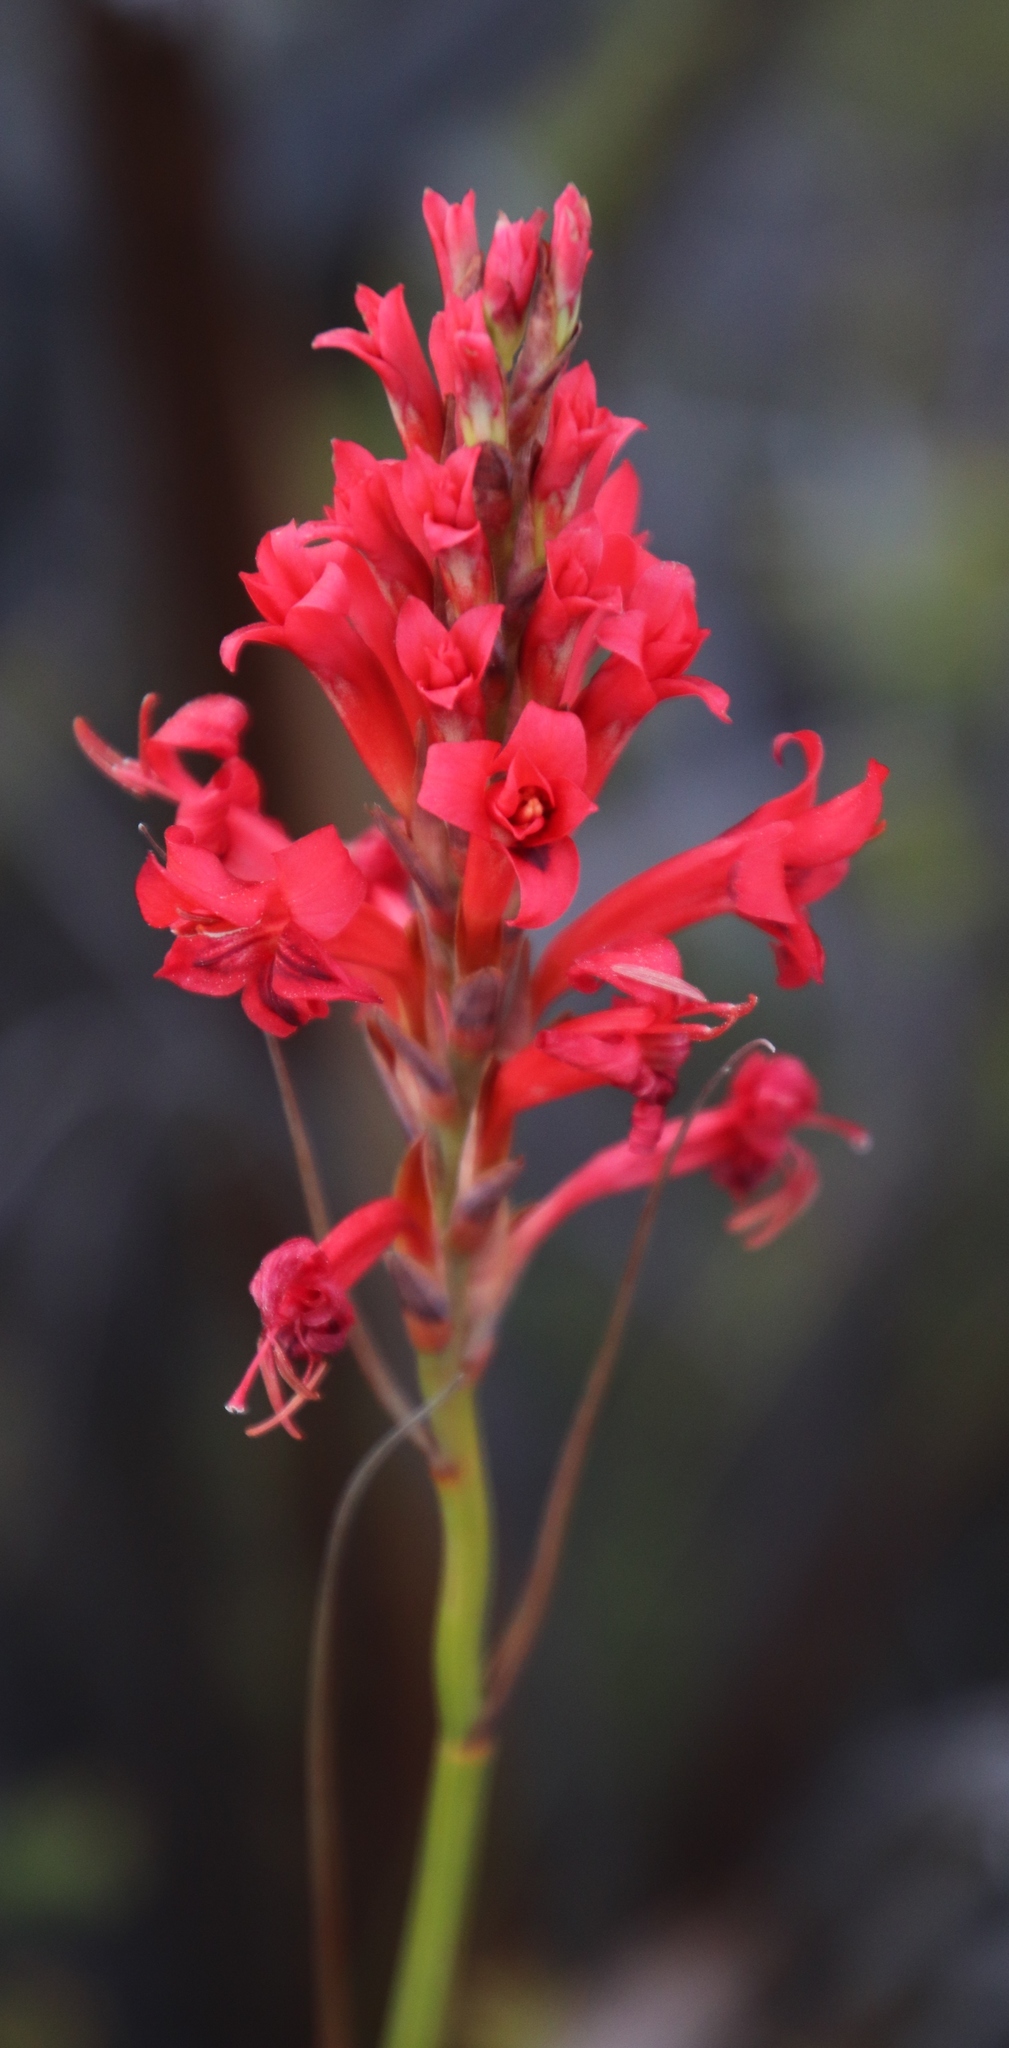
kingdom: Plantae
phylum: Tracheophyta
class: Liliopsida
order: Asparagales
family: Iridaceae
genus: Tritoniopsis
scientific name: Tritoniopsis triticea
